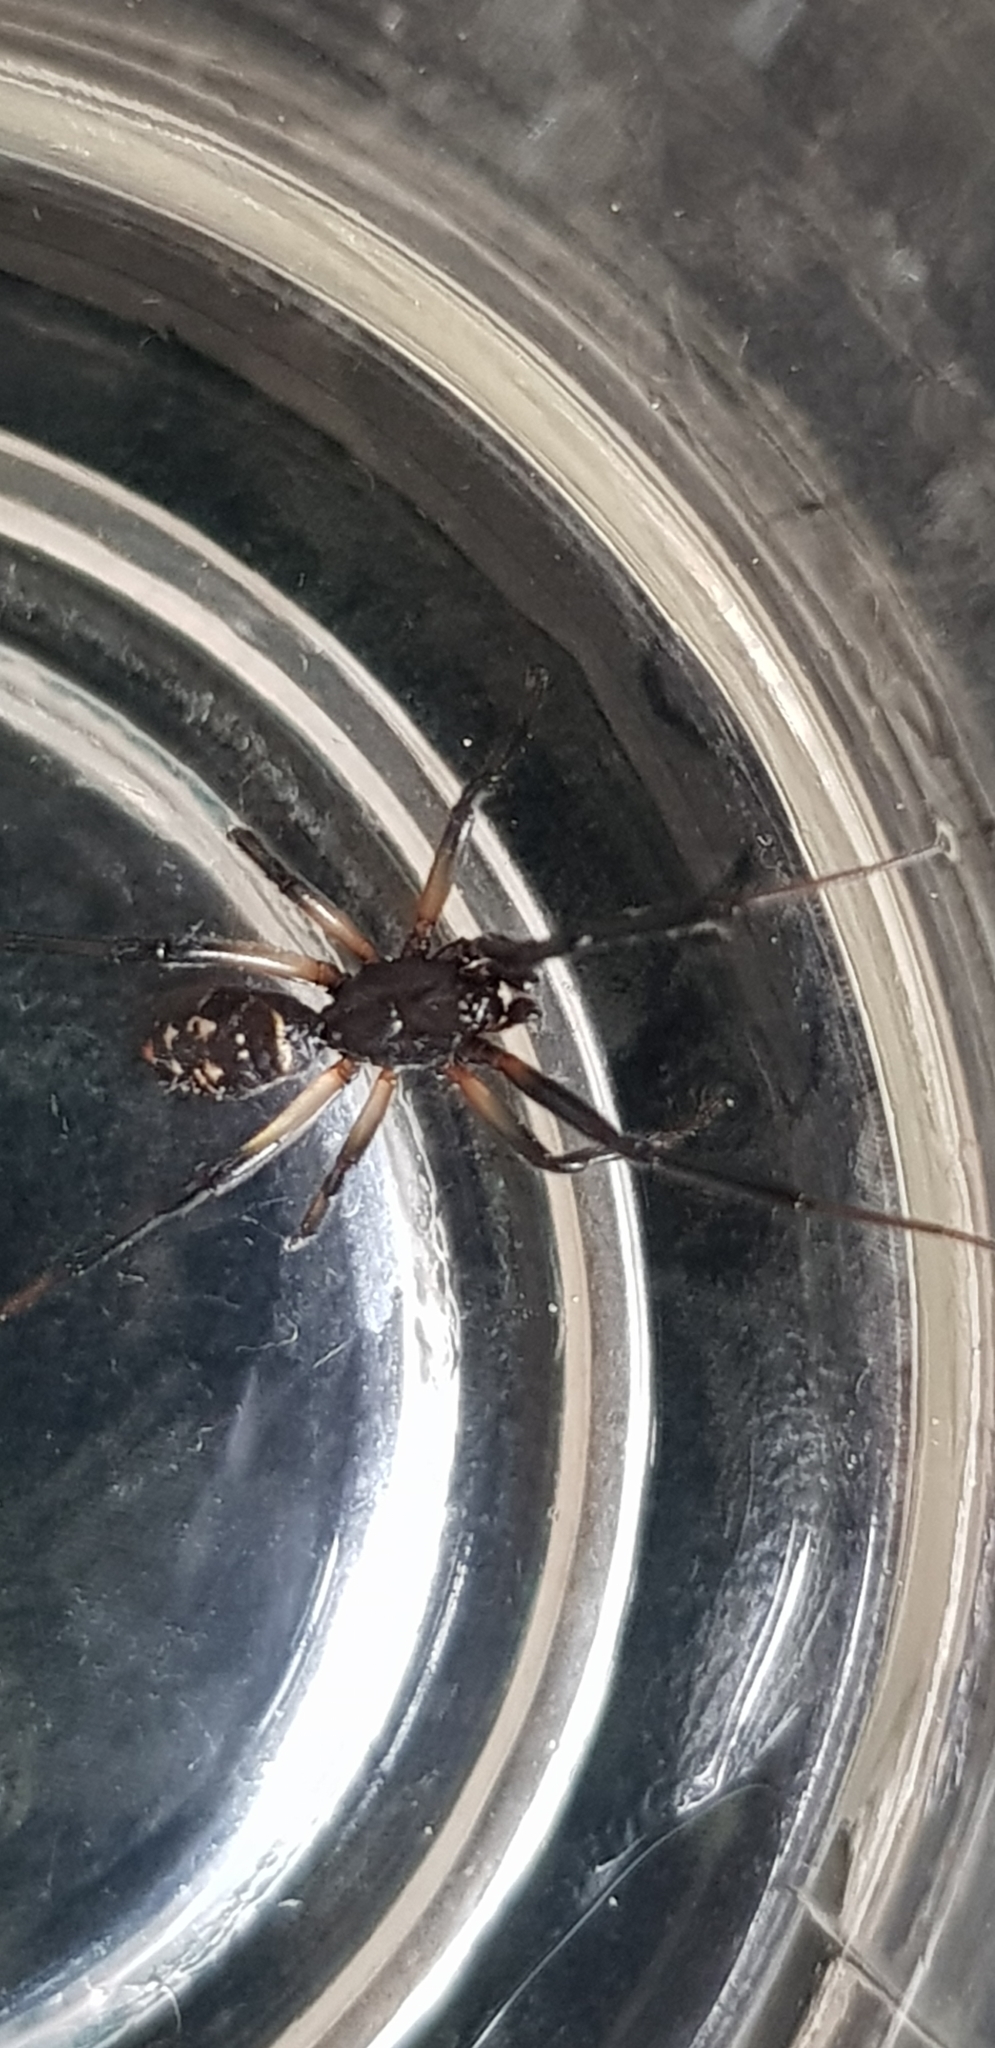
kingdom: Animalia
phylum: Arthropoda
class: Arachnida
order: Araneae
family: Theridiidae
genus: Steatoda
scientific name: Steatoda capensis
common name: Cobweb weaver
